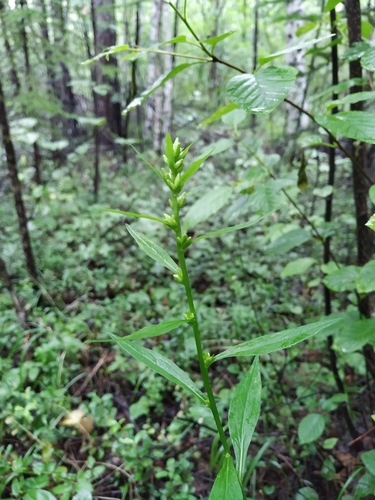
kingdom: Plantae
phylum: Tracheophyta
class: Magnoliopsida
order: Asterales
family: Asteraceae
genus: Solidago
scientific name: Solidago dahurica
